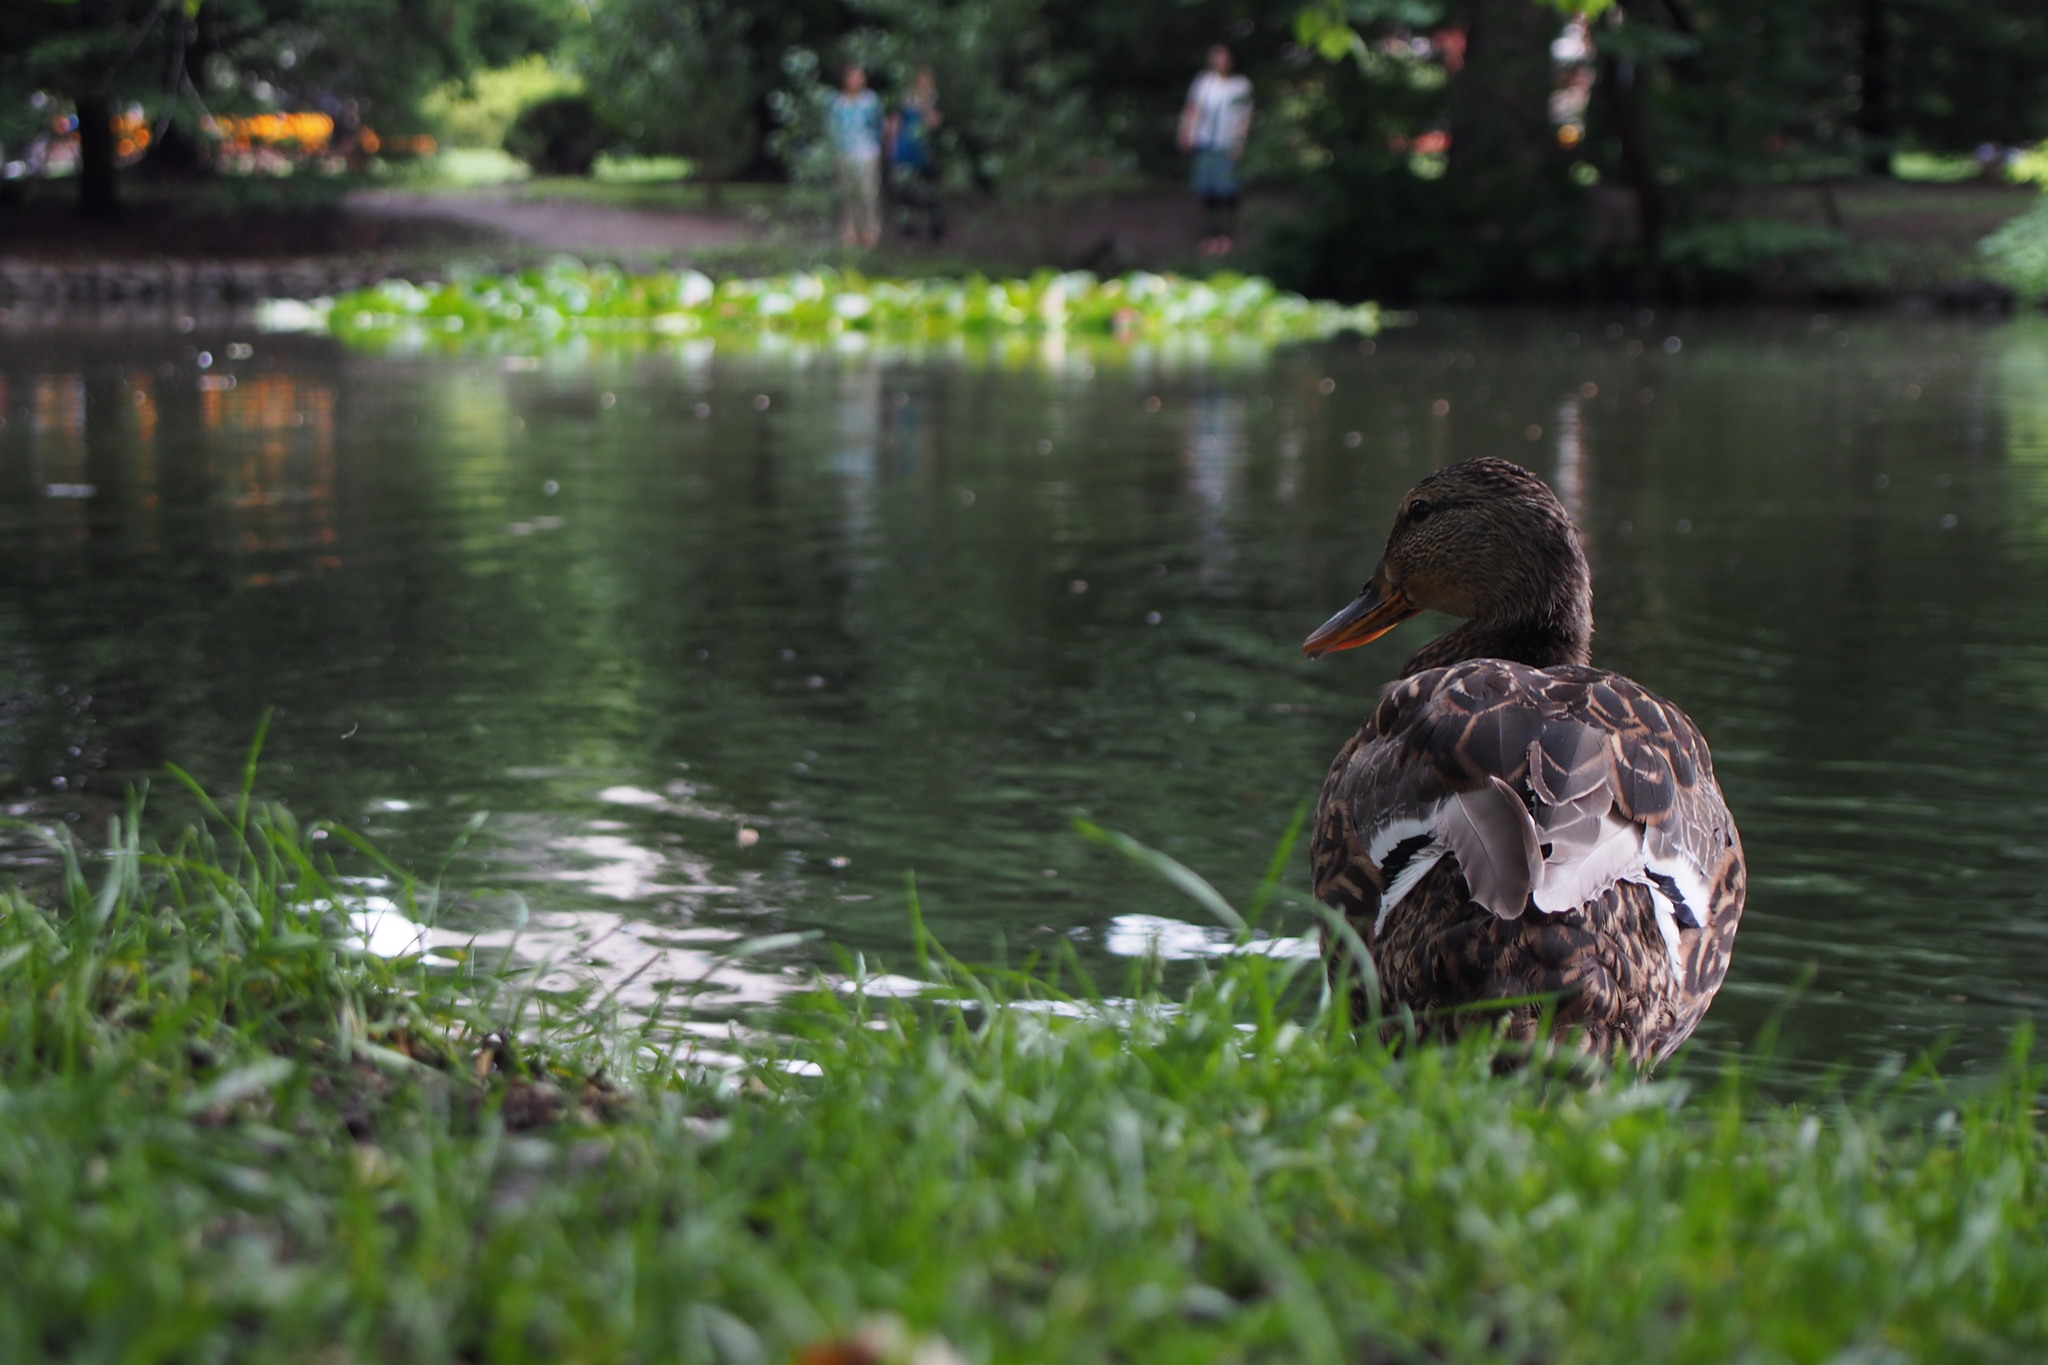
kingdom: Animalia
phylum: Chordata
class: Aves
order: Anseriformes
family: Anatidae
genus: Anas
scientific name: Anas platyrhynchos
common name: Mallard
